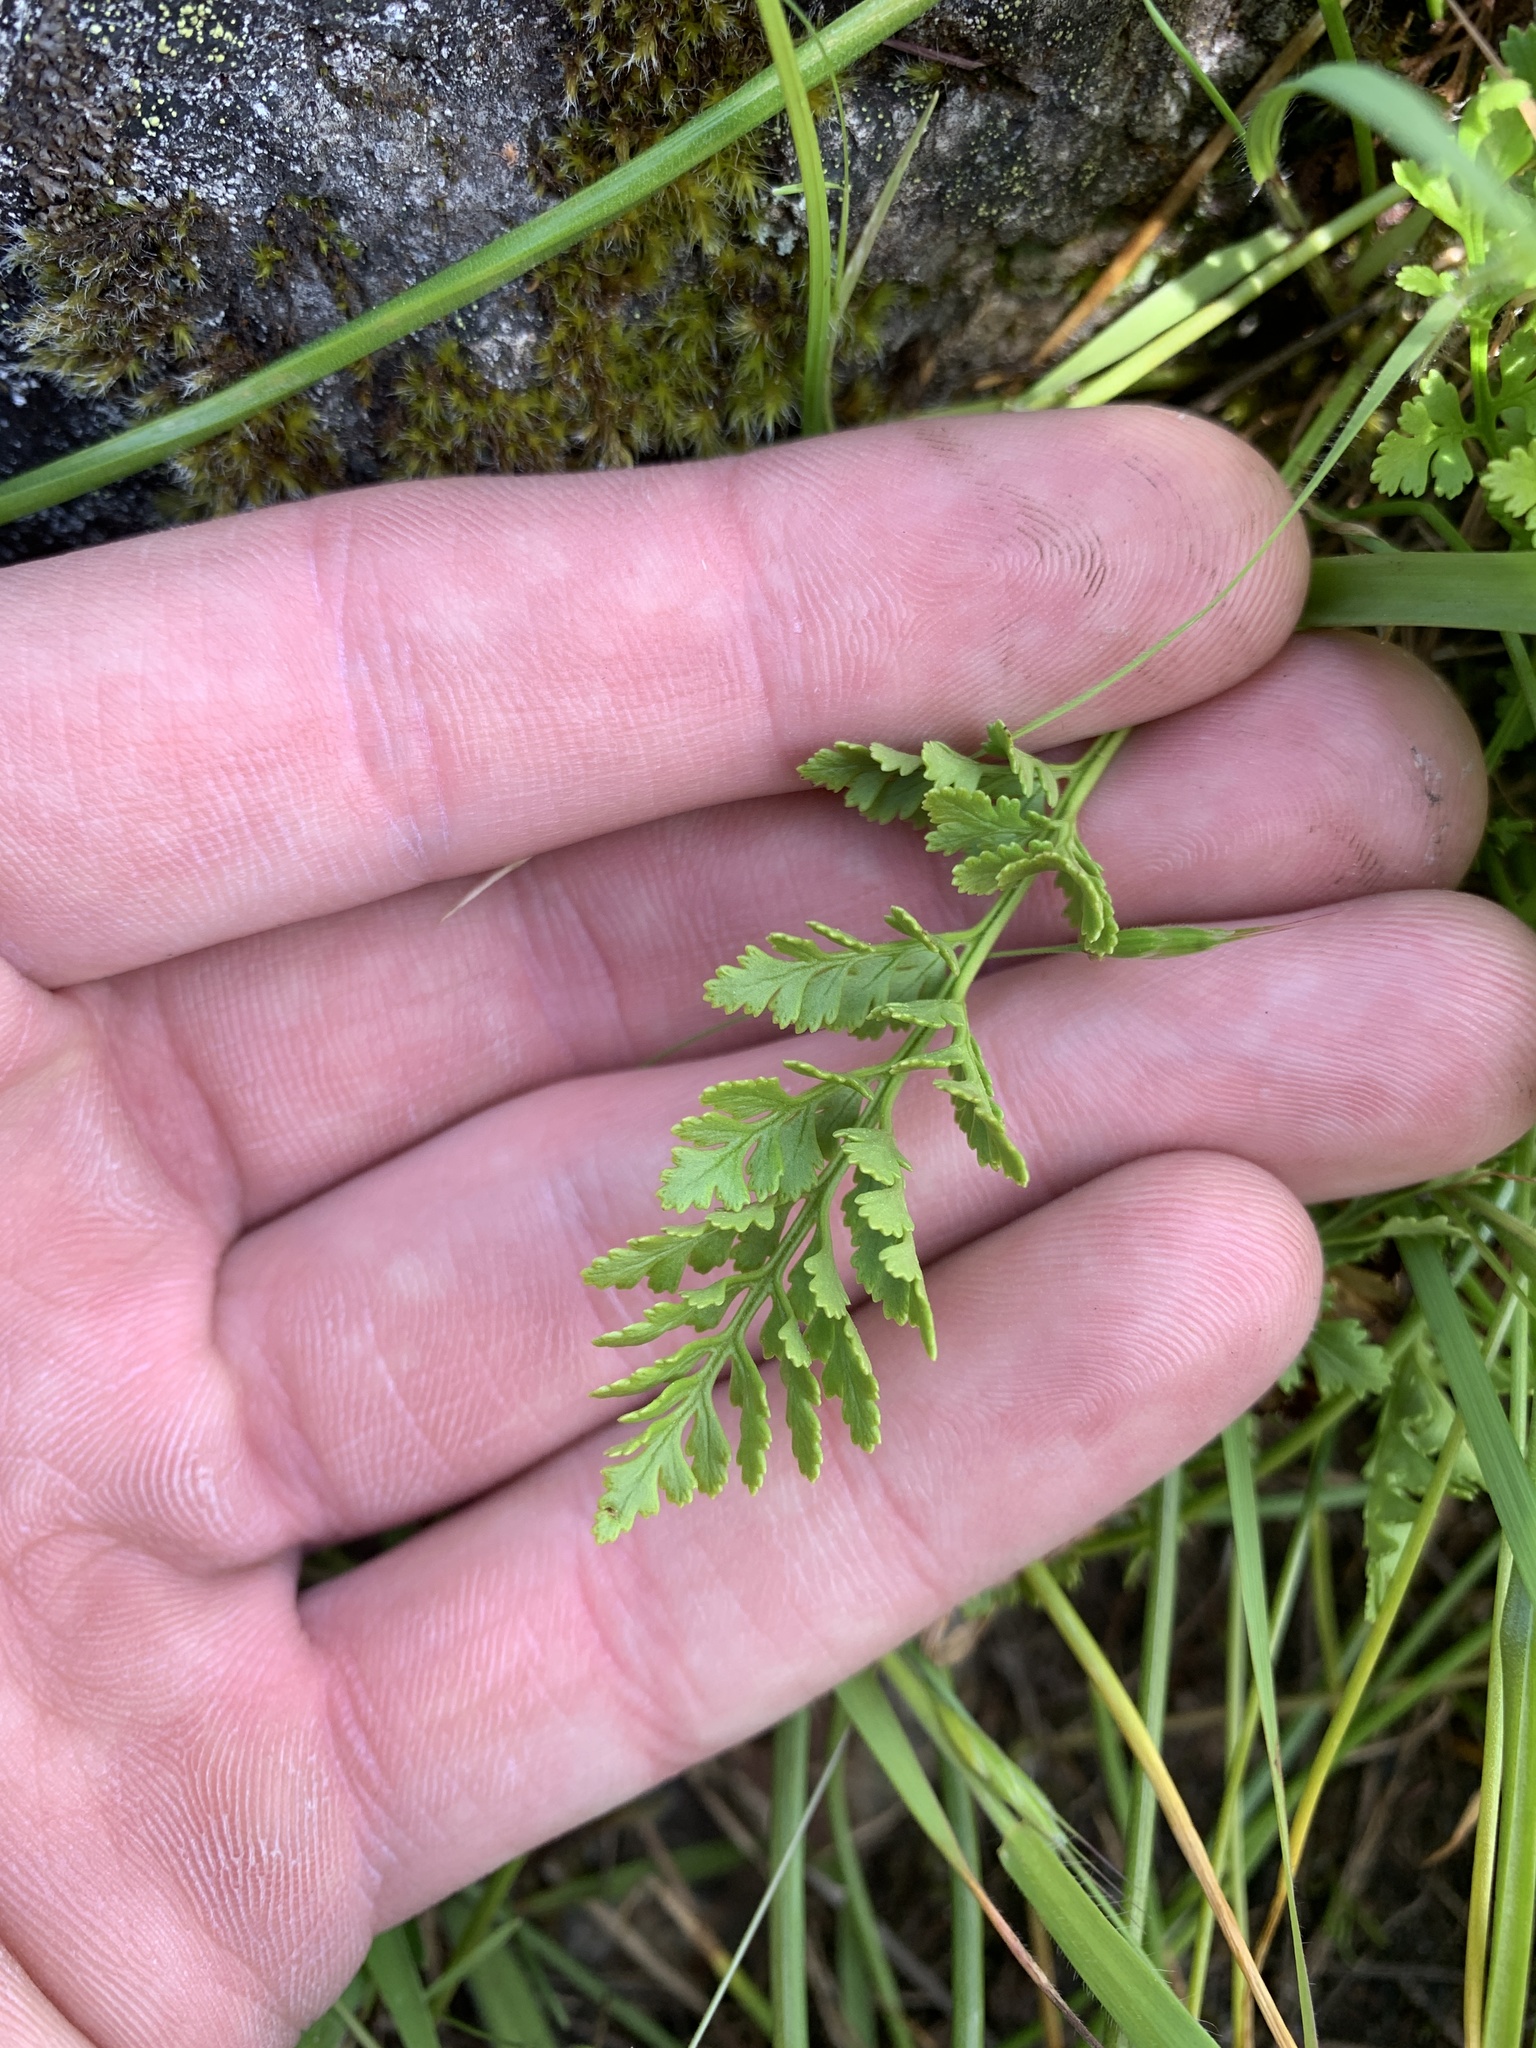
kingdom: Plantae
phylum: Tracheophyta
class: Polypodiopsida
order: Polypodiales
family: Pteridaceae
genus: Cryptogramma
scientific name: Cryptogramma acrostichoides
